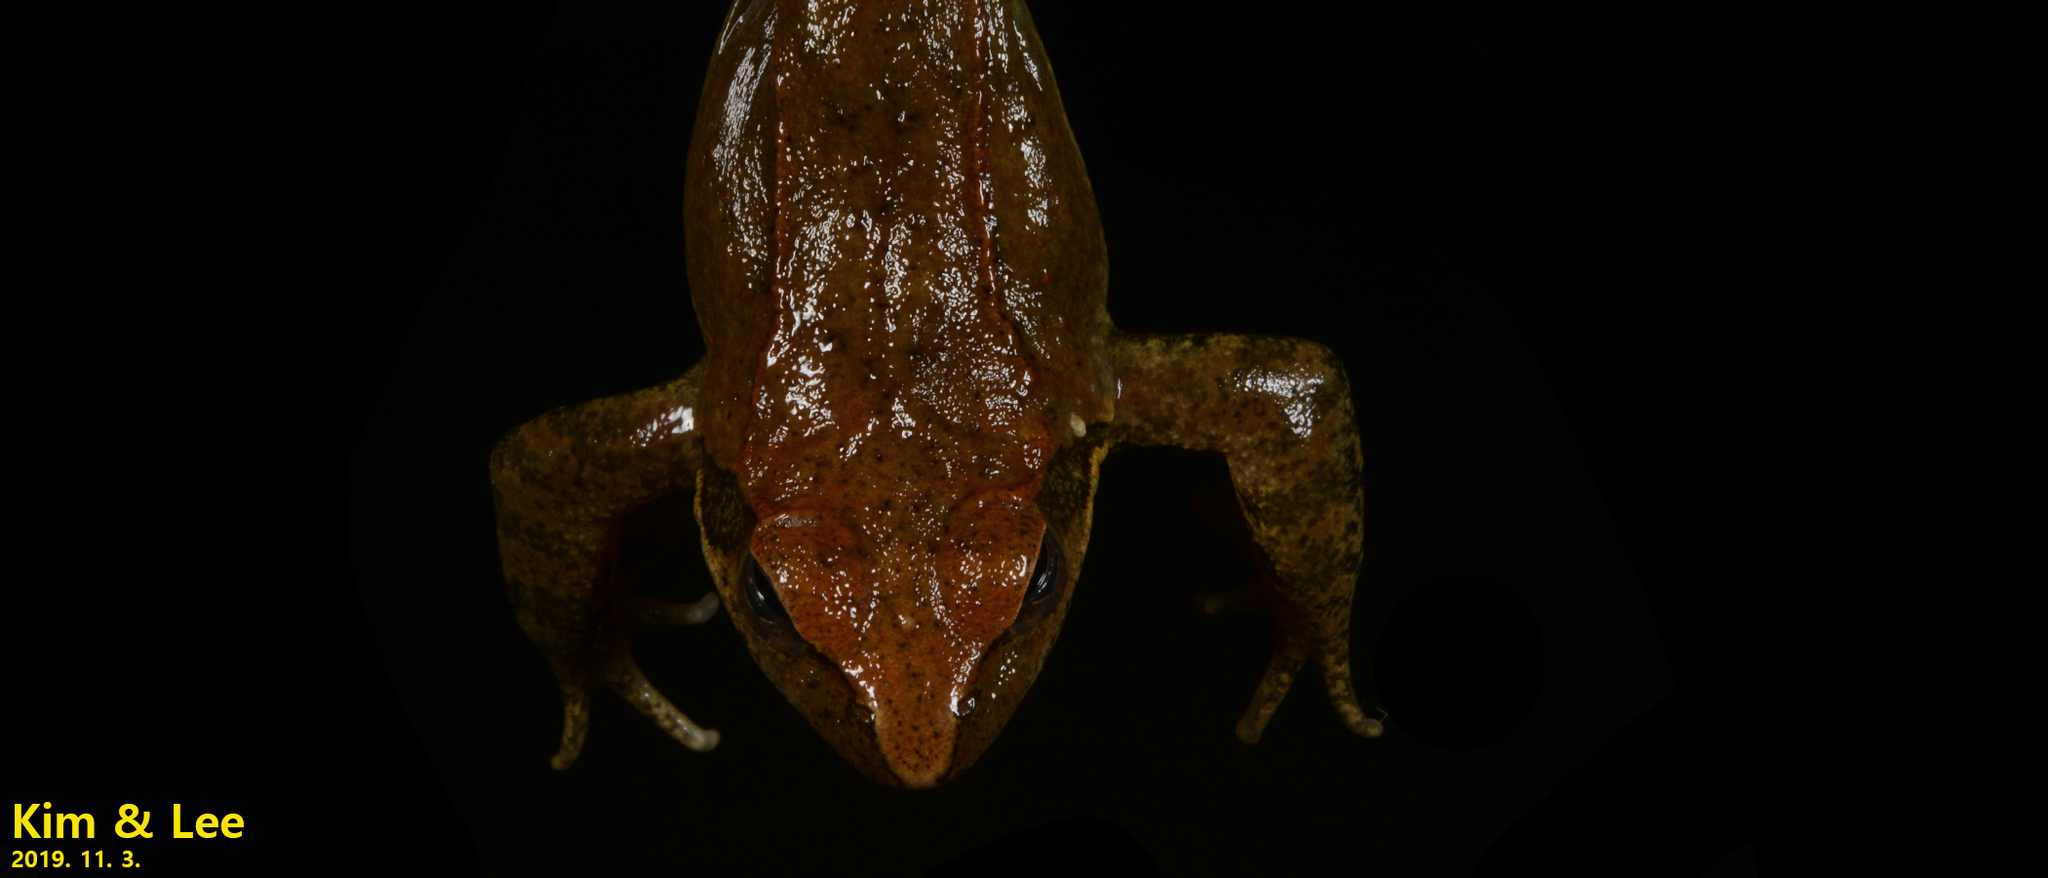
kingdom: Animalia
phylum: Chordata
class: Amphibia
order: Anura
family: Ranidae
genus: Rana
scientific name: Rana huanrenensis
